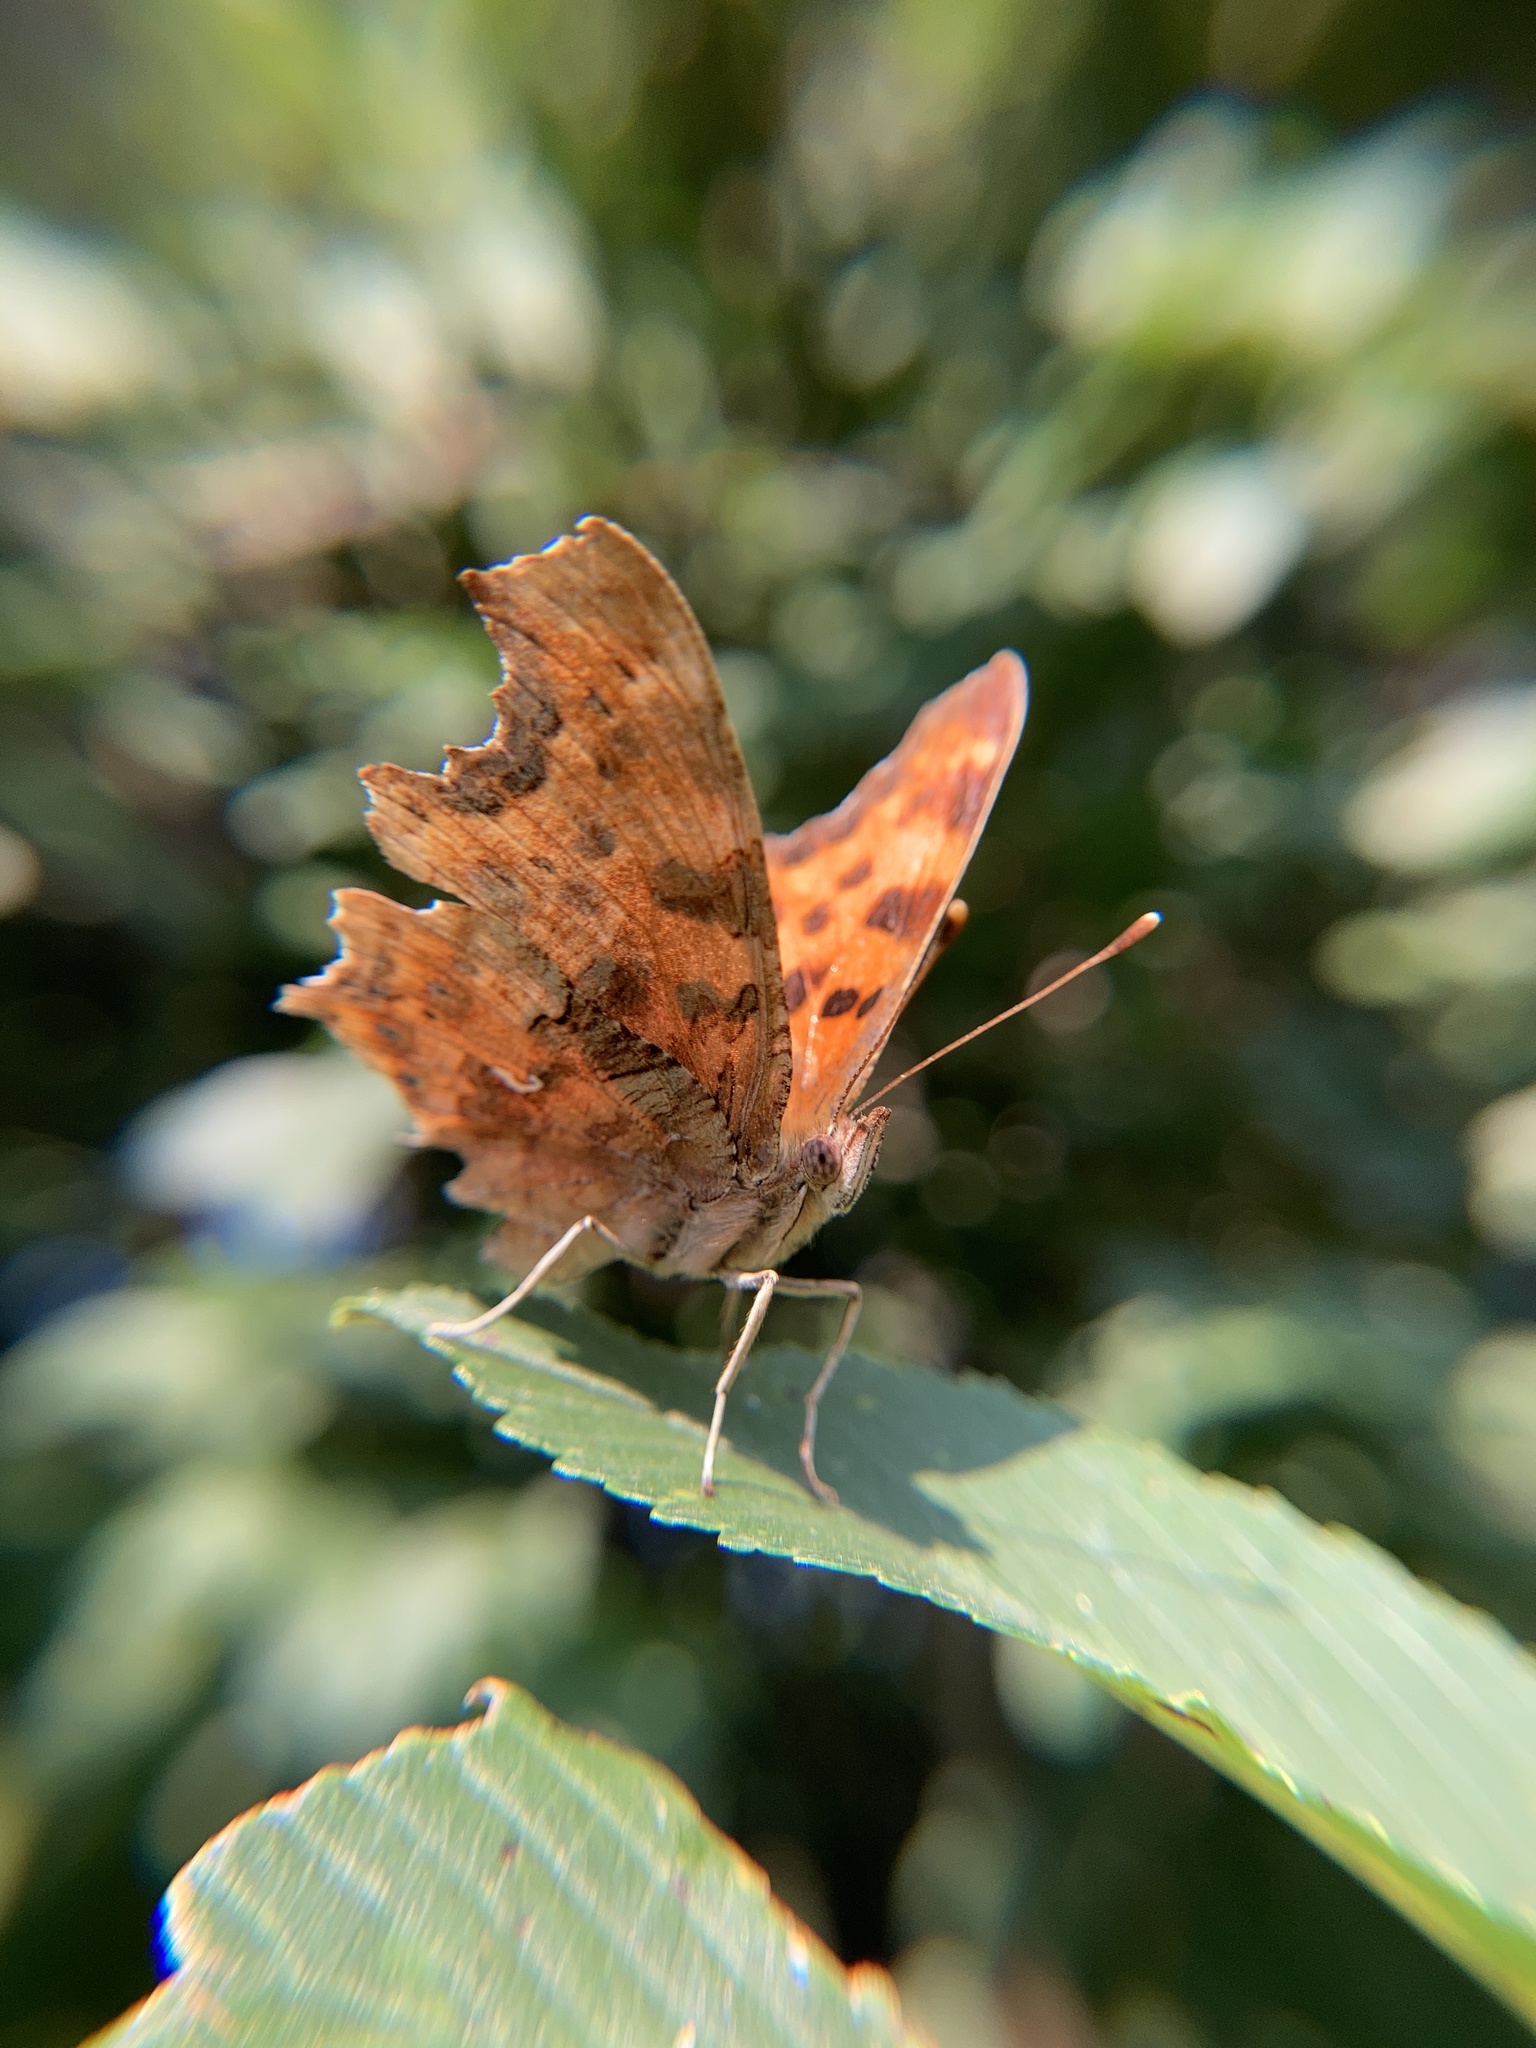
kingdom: Animalia
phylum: Arthropoda
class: Insecta
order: Lepidoptera
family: Nymphalidae
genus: Polygonia
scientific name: Polygonia c-album
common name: Comma
